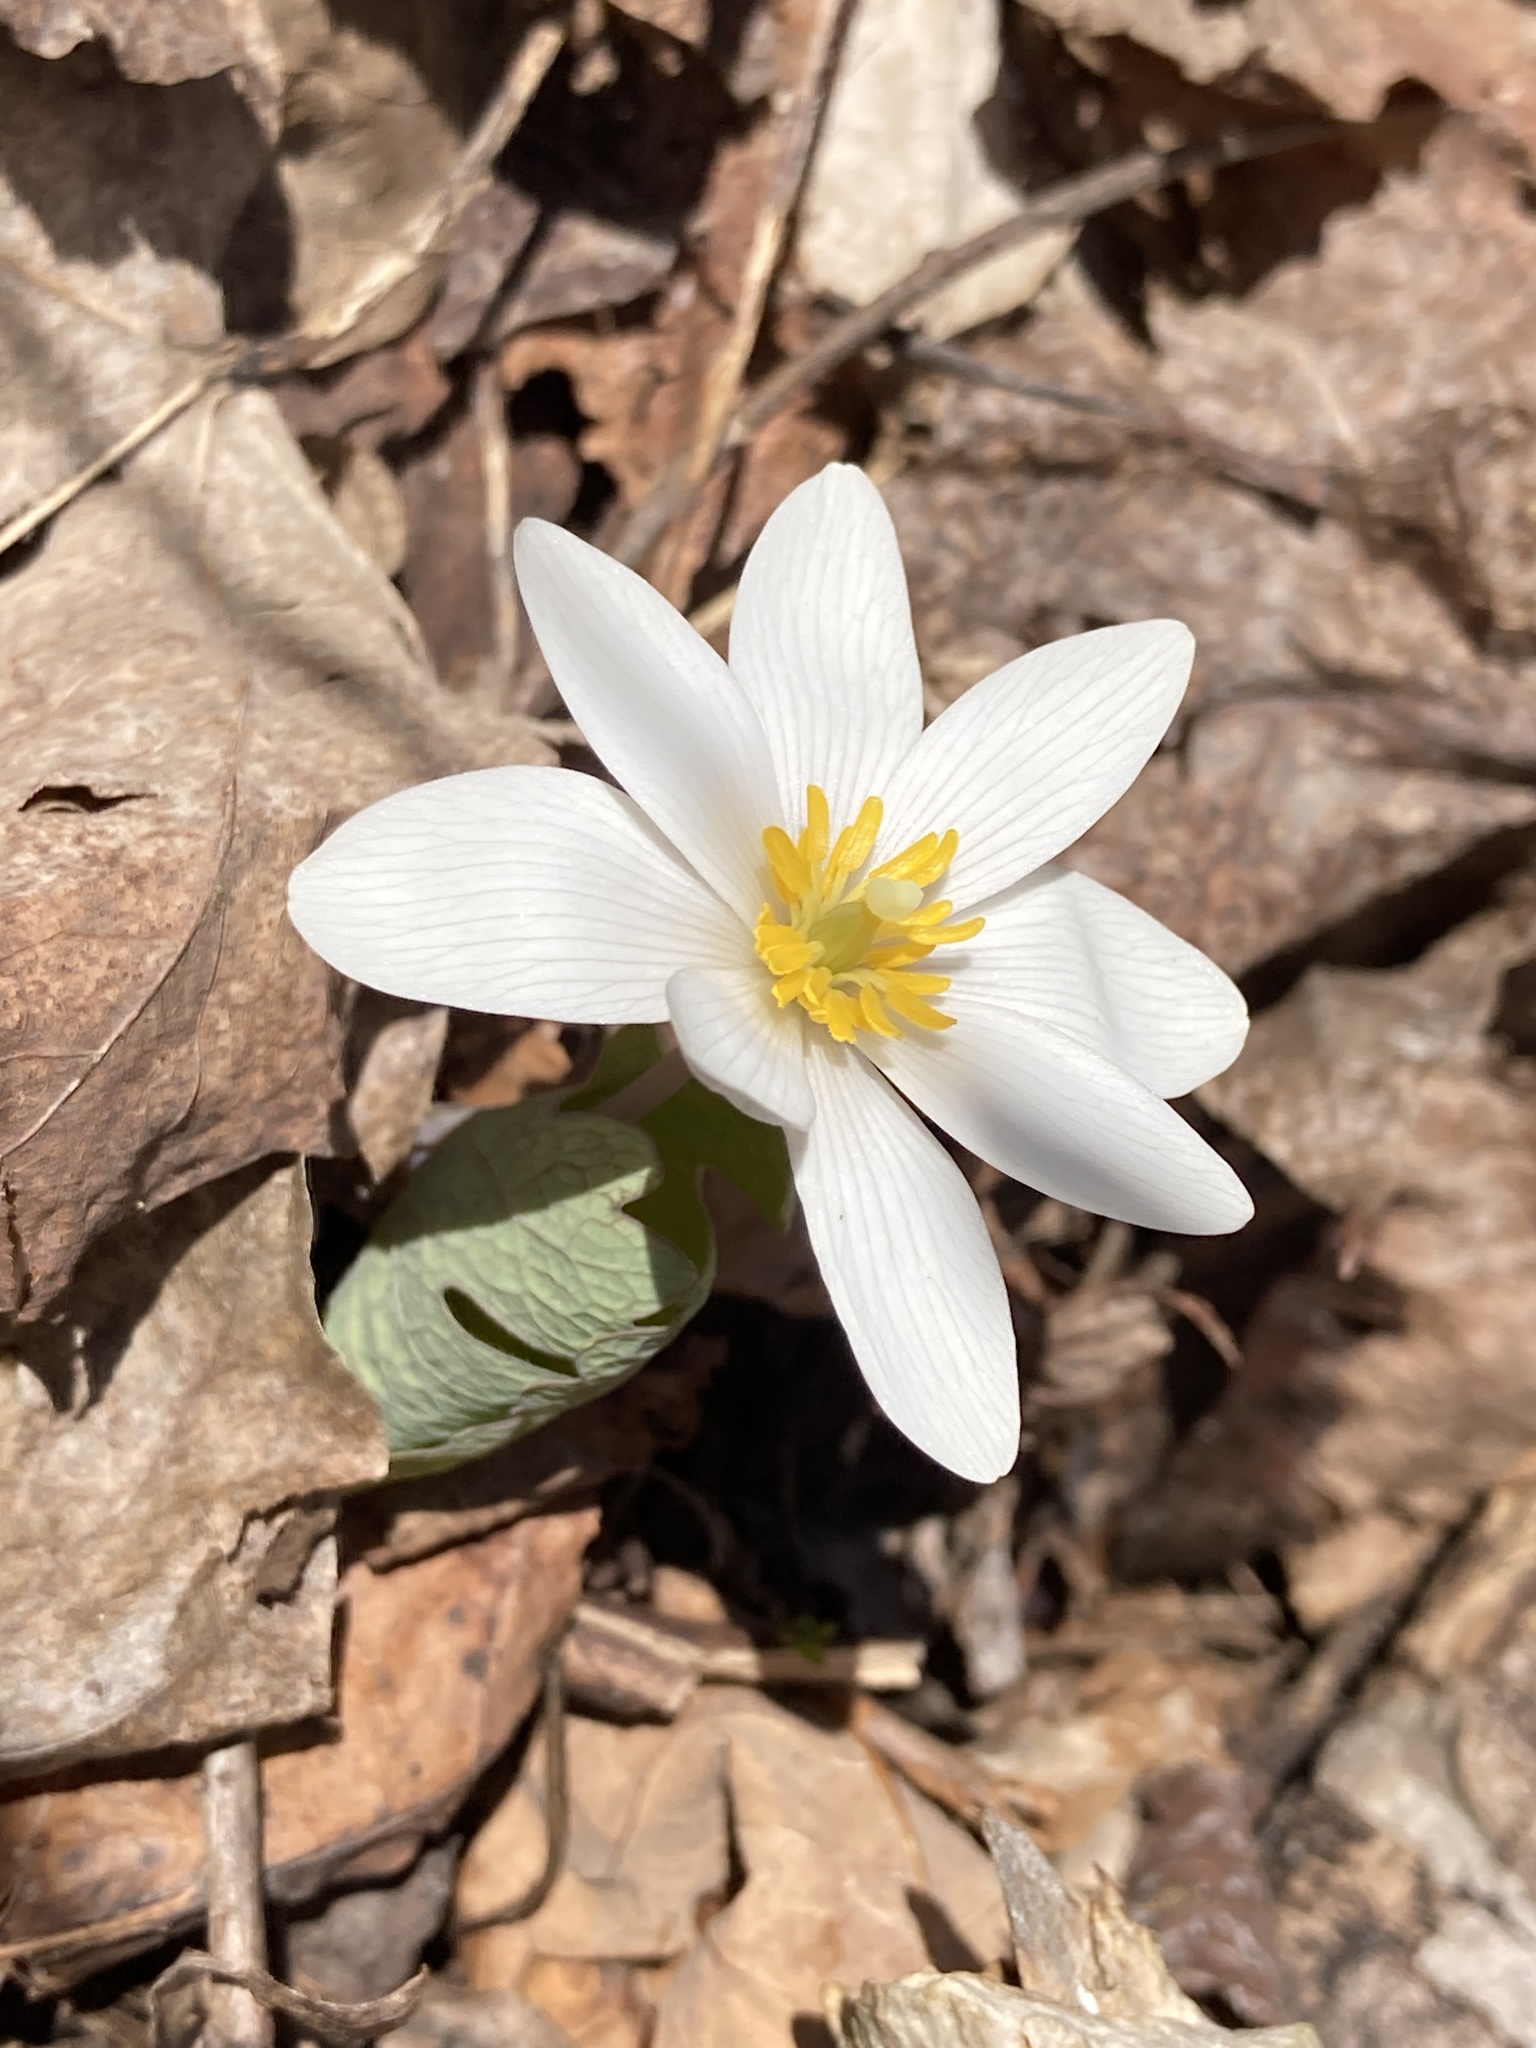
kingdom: Plantae
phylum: Tracheophyta
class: Magnoliopsida
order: Ranunculales
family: Papaveraceae
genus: Sanguinaria
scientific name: Sanguinaria canadensis
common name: Bloodroot
